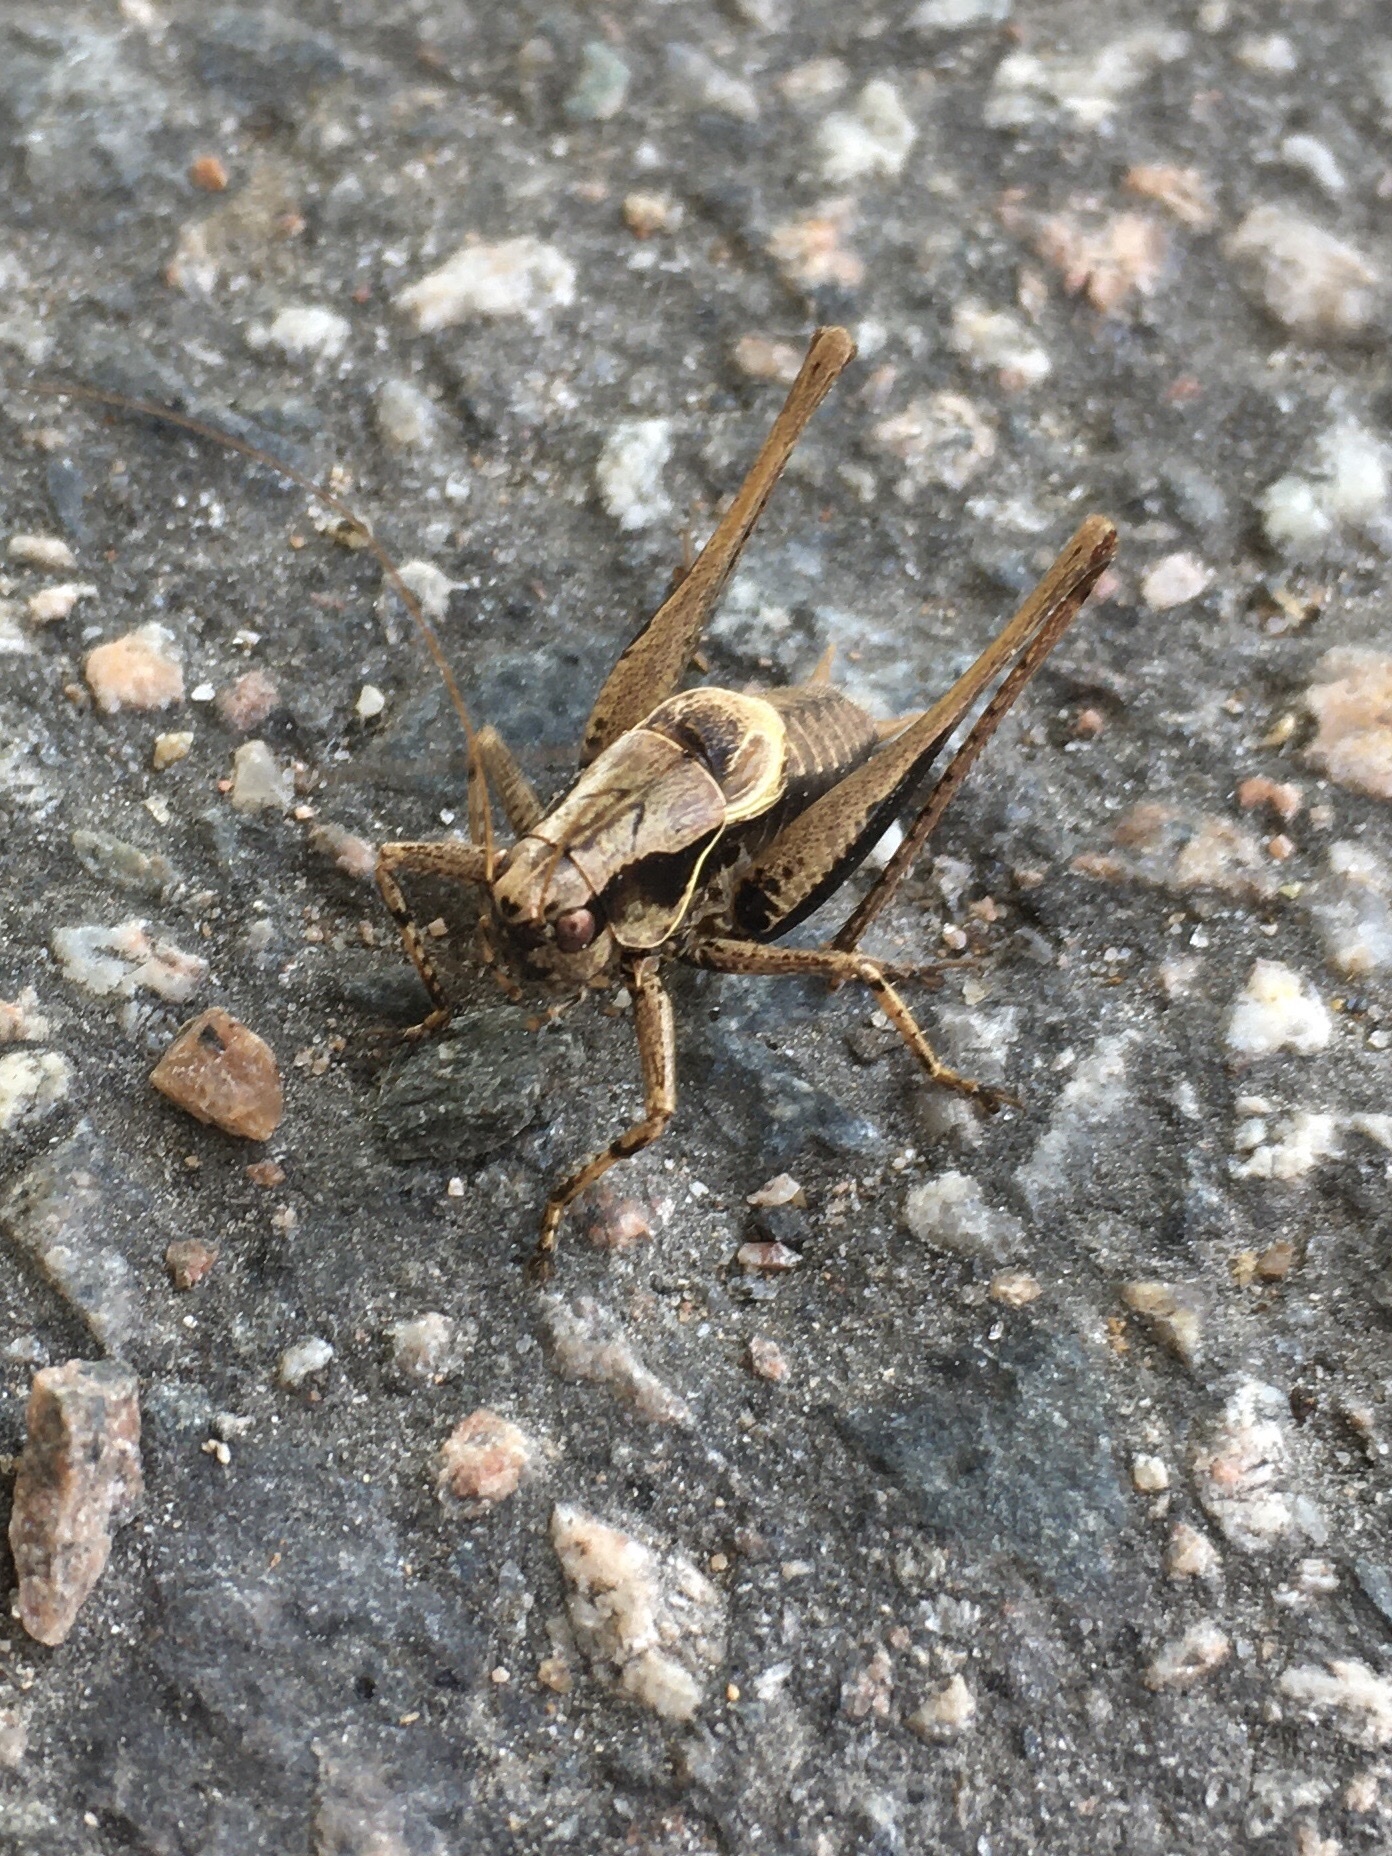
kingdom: Animalia
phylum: Arthropoda
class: Insecta
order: Orthoptera
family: Tettigoniidae
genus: Pholidoptera
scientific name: Pholidoptera griseoaptera
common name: Dark bush-cricket
